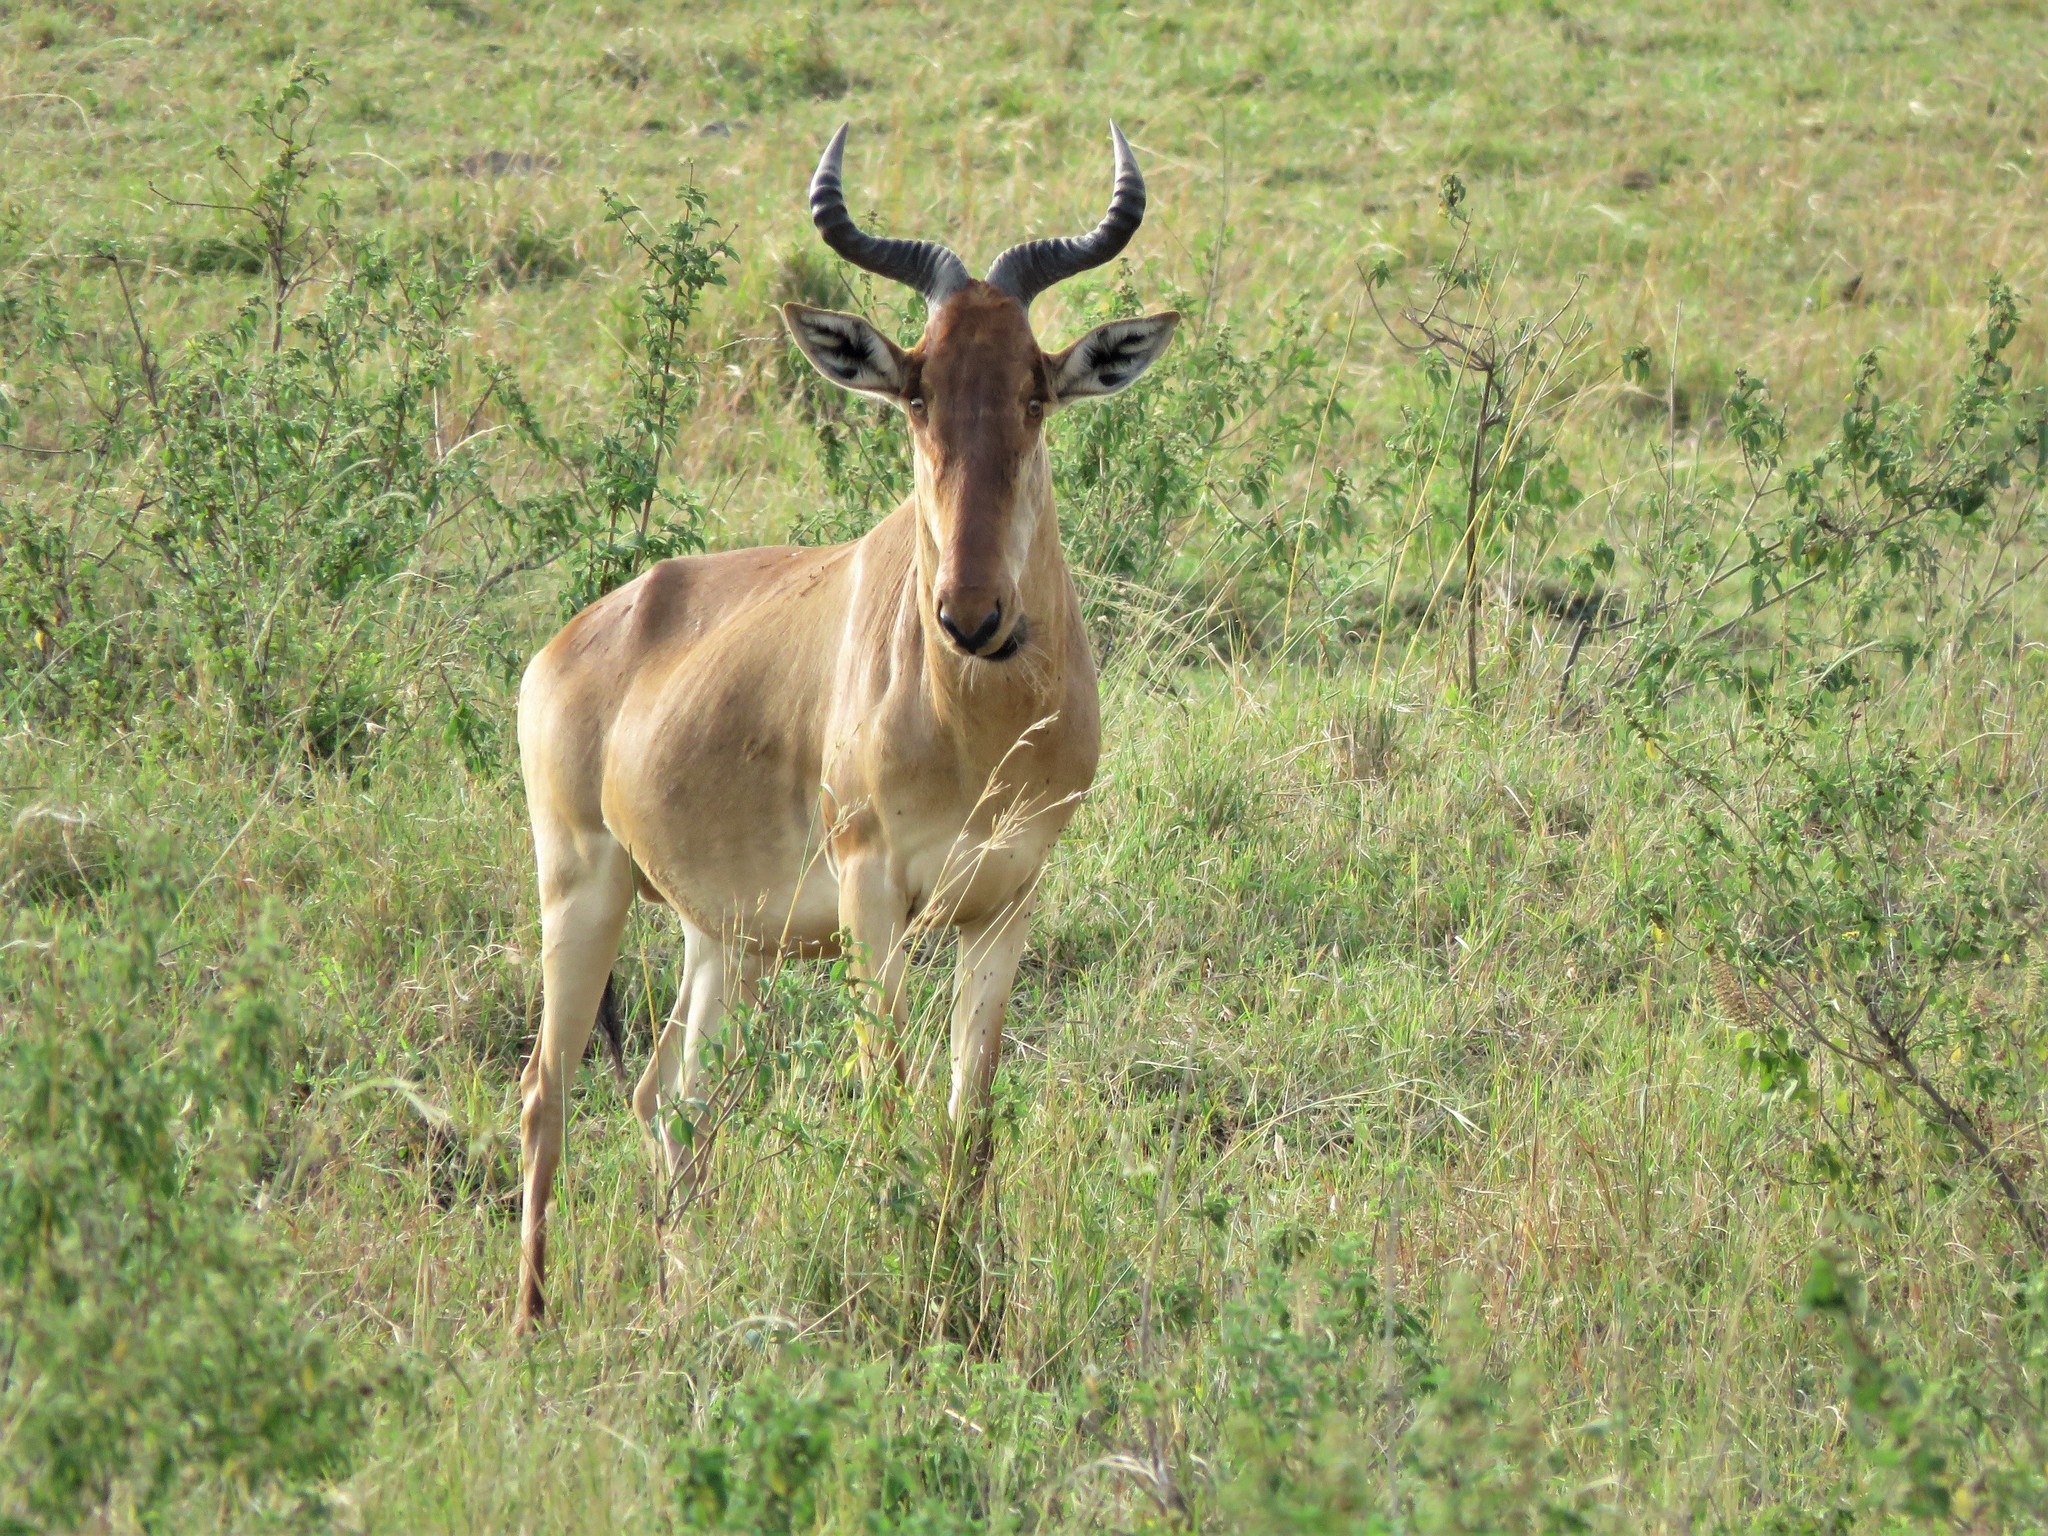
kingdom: Animalia
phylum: Chordata
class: Mammalia
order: Artiodactyla
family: Bovidae
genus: Alcelaphus
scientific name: Alcelaphus buselaphus
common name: Hartebeest
